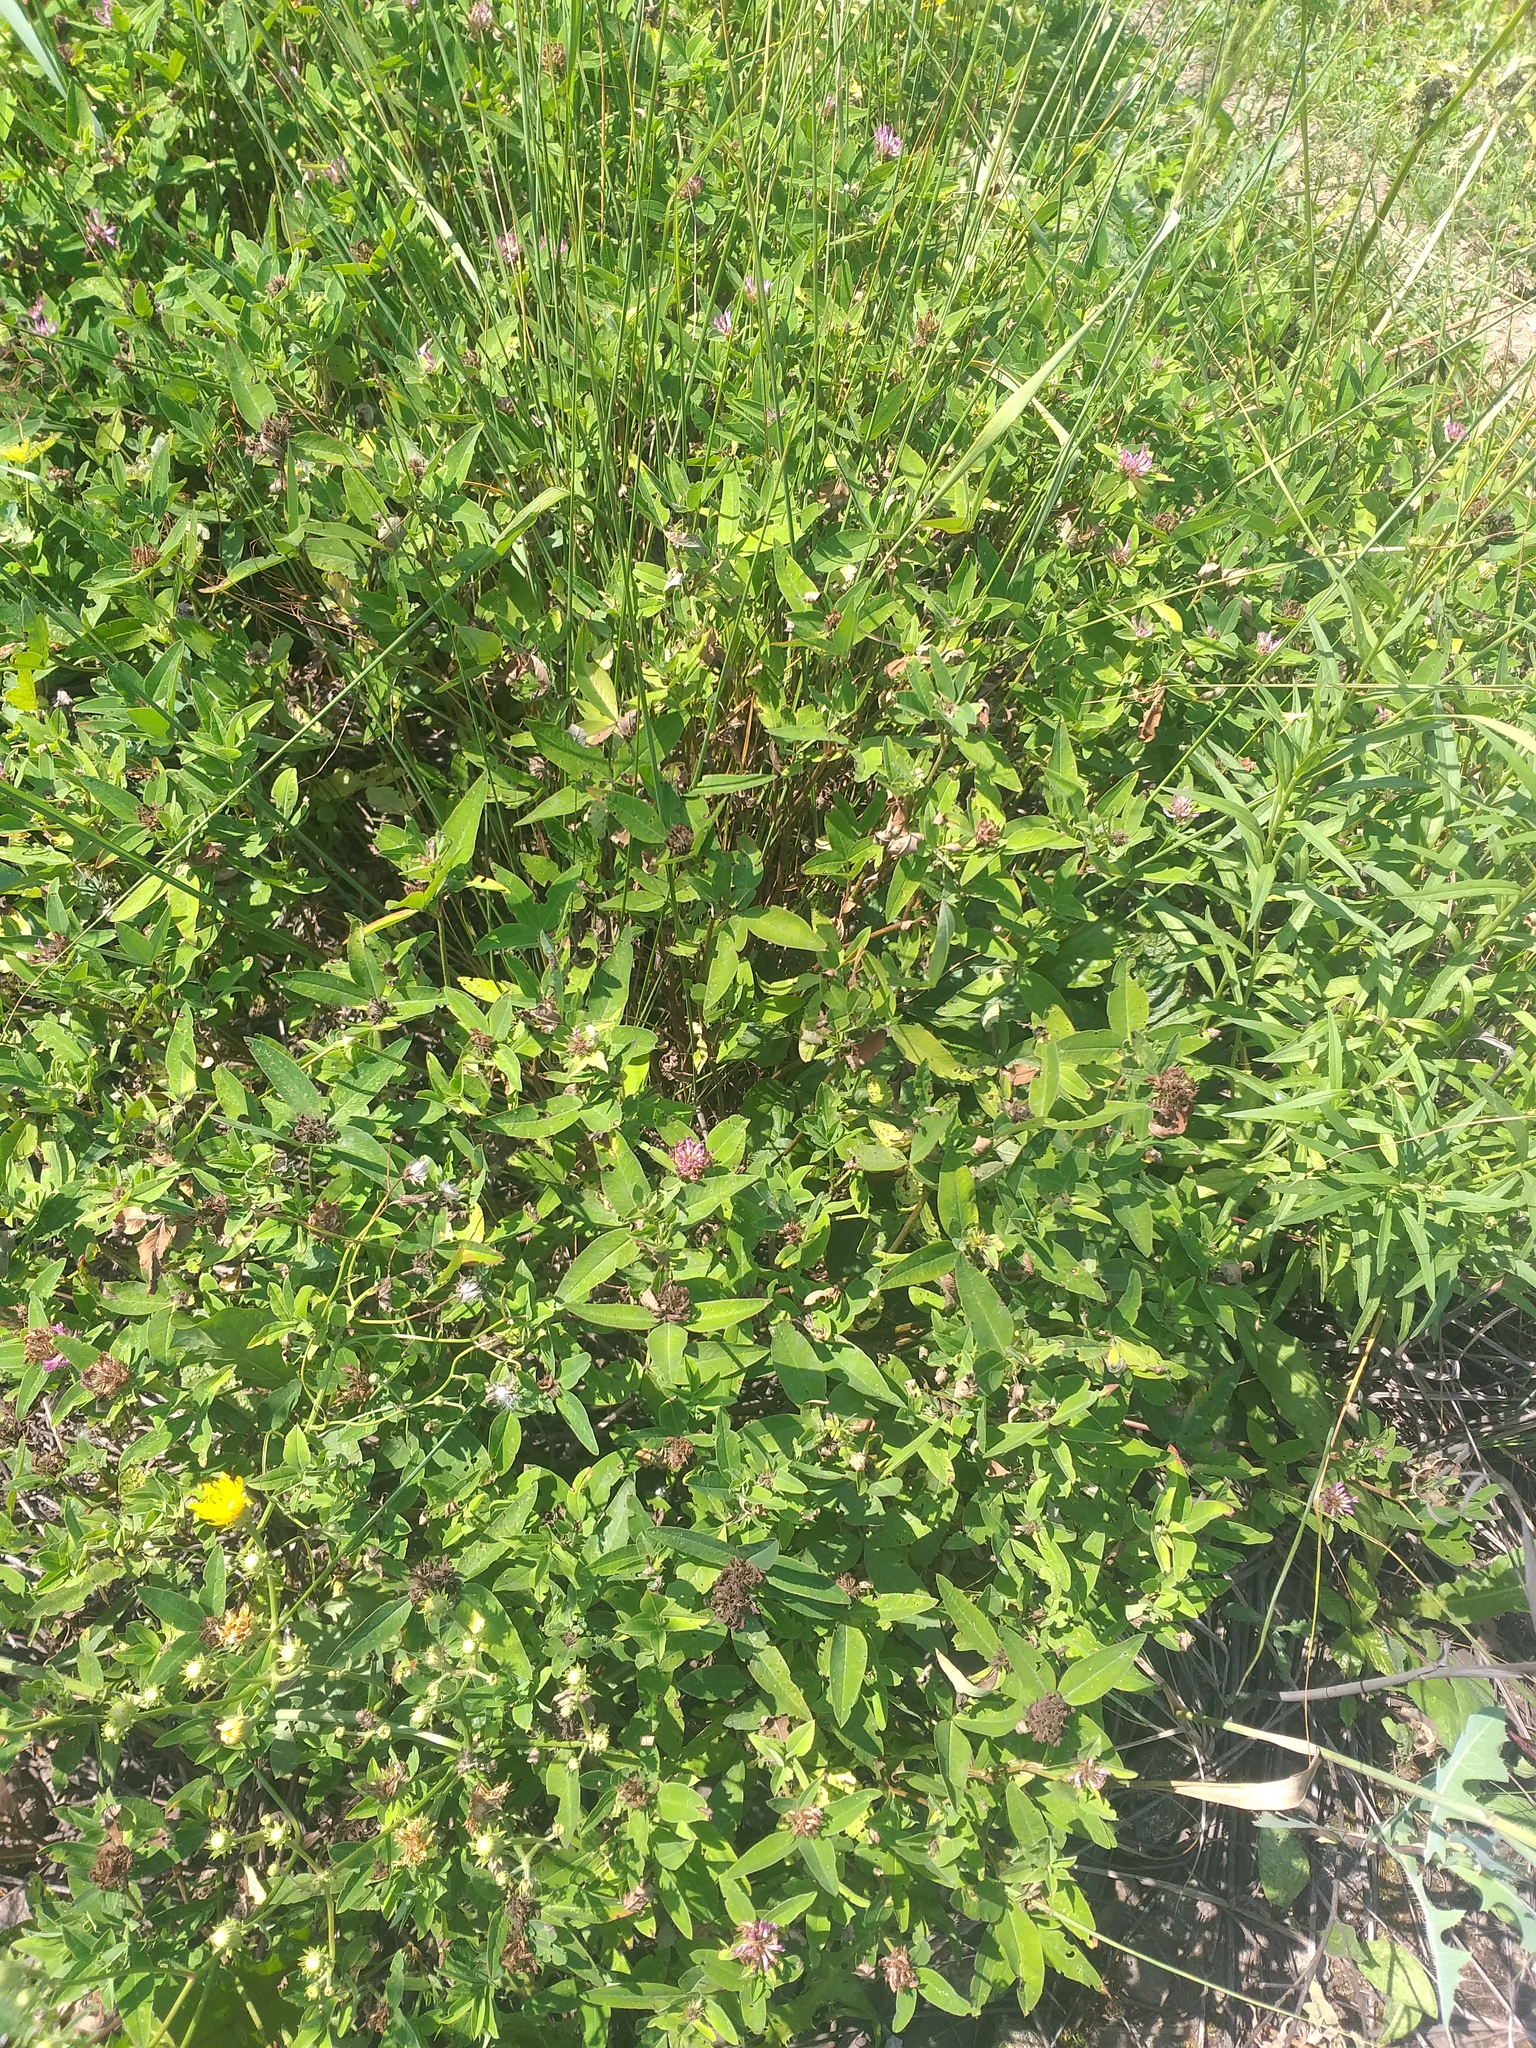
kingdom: Plantae
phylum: Tracheophyta
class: Magnoliopsida
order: Fabales
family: Fabaceae
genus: Trifolium
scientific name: Trifolium medium
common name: Zigzag clover
